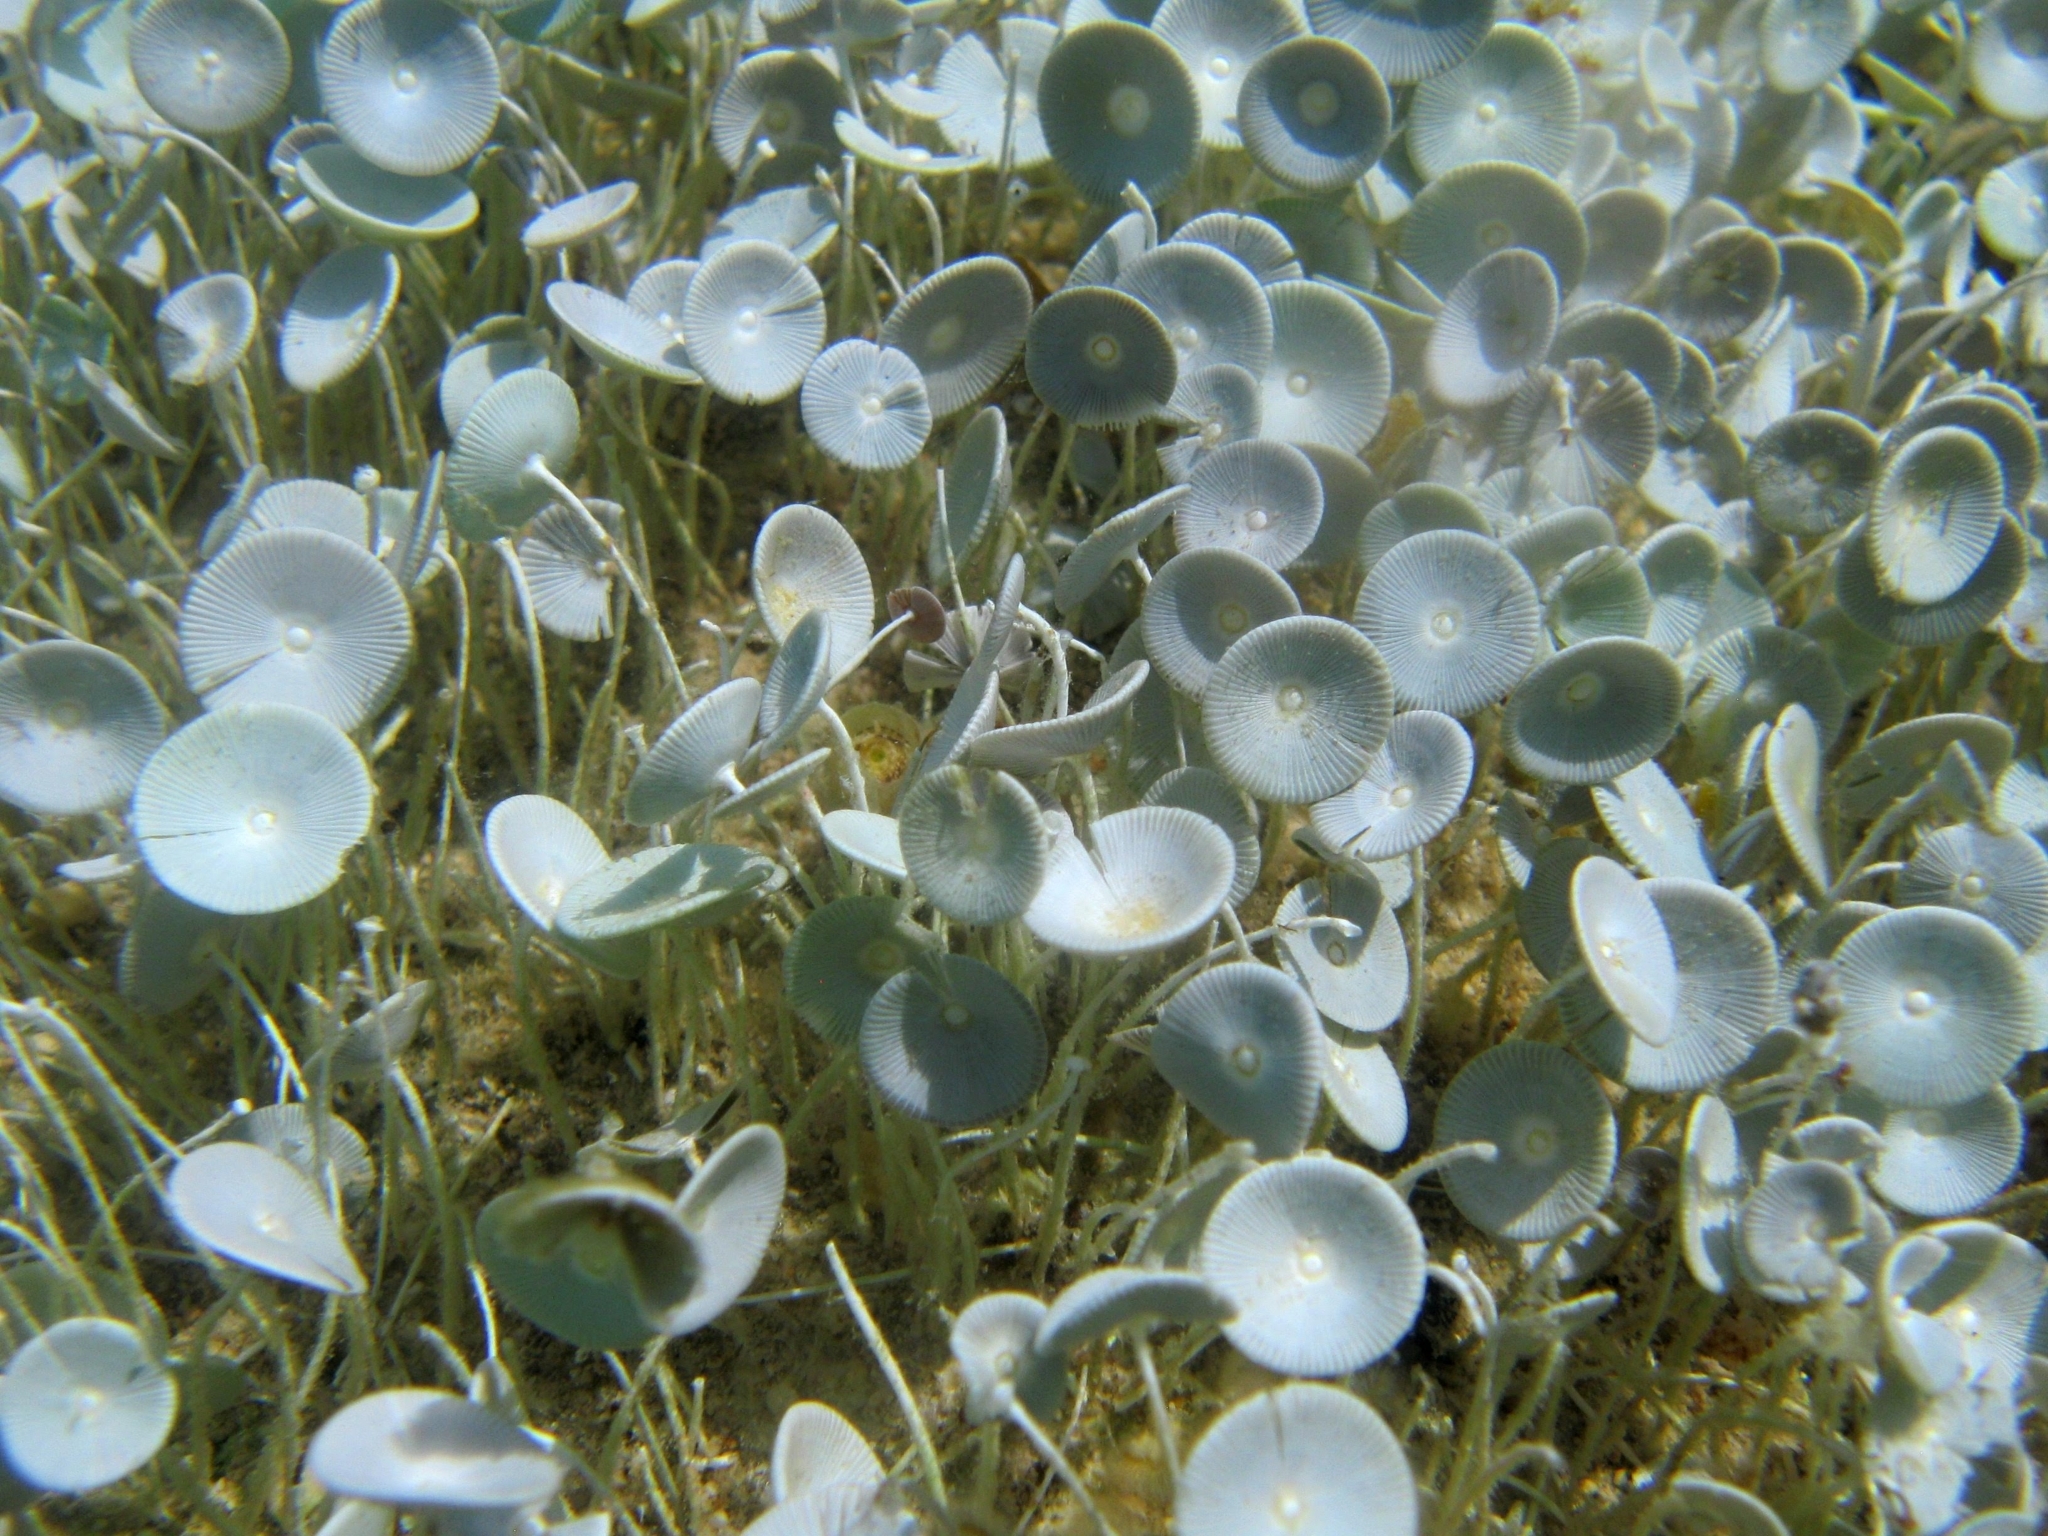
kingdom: Plantae
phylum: Chlorophyta
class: Ulvophyceae
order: Dasycladales
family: Polyphysaceae
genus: Acetabularia
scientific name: Acetabularia acetabulum
